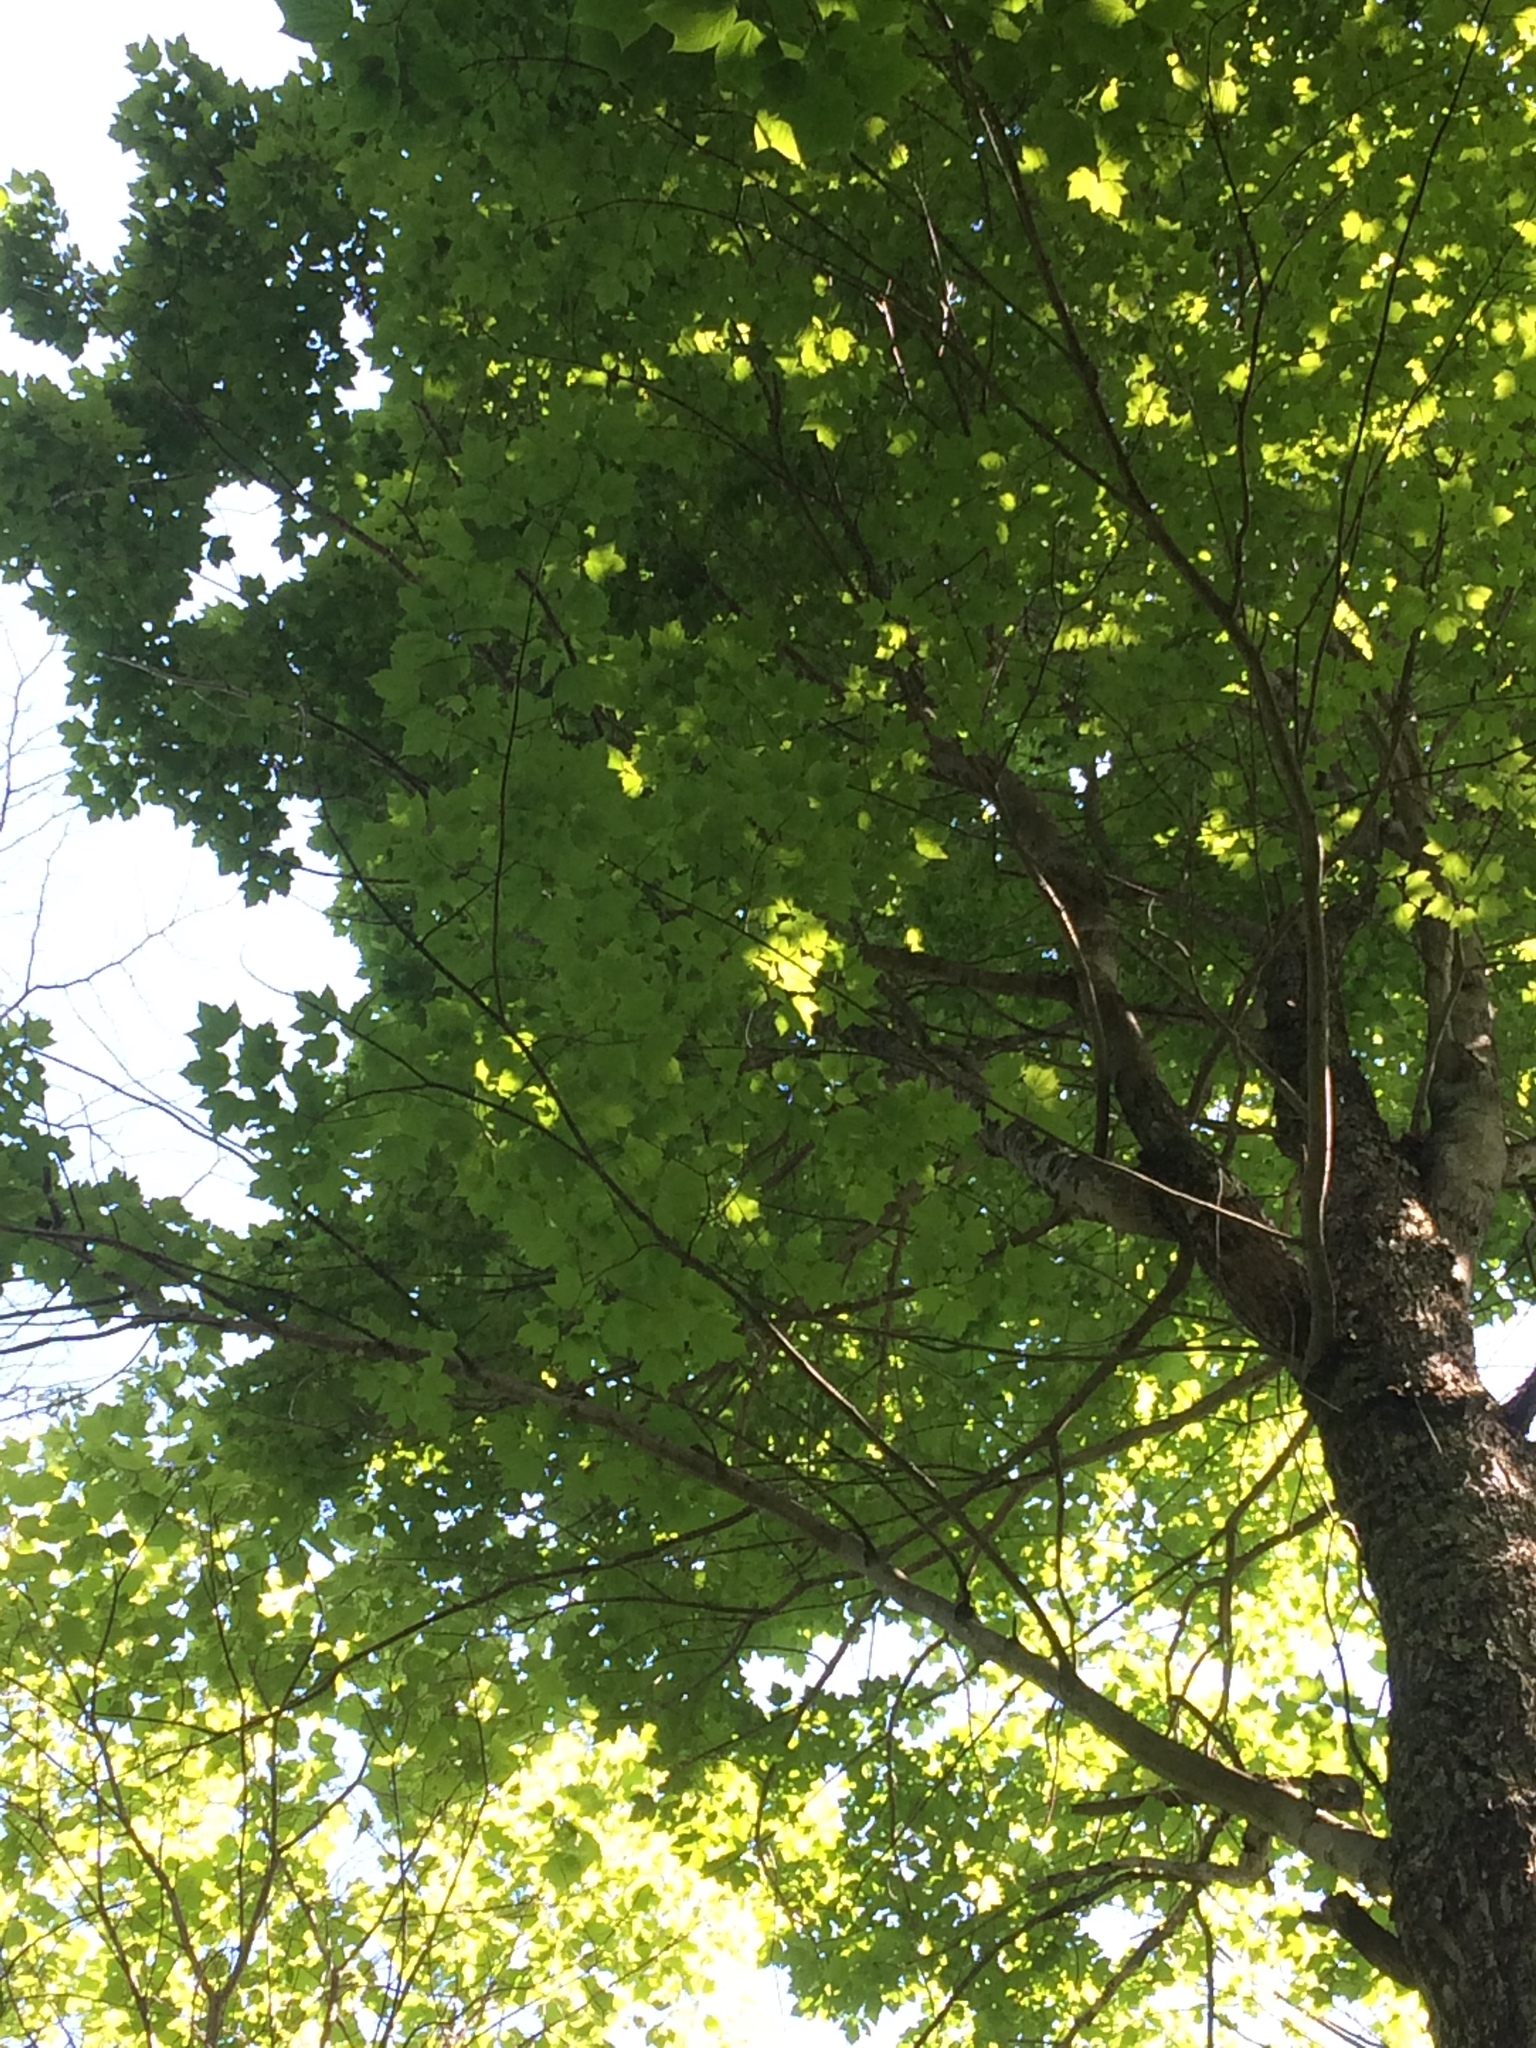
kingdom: Plantae
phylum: Tracheophyta
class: Magnoliopsida
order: Sapindales
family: Sapindaceae
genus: Acer
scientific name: Acer saccharum
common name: Sugar maple
